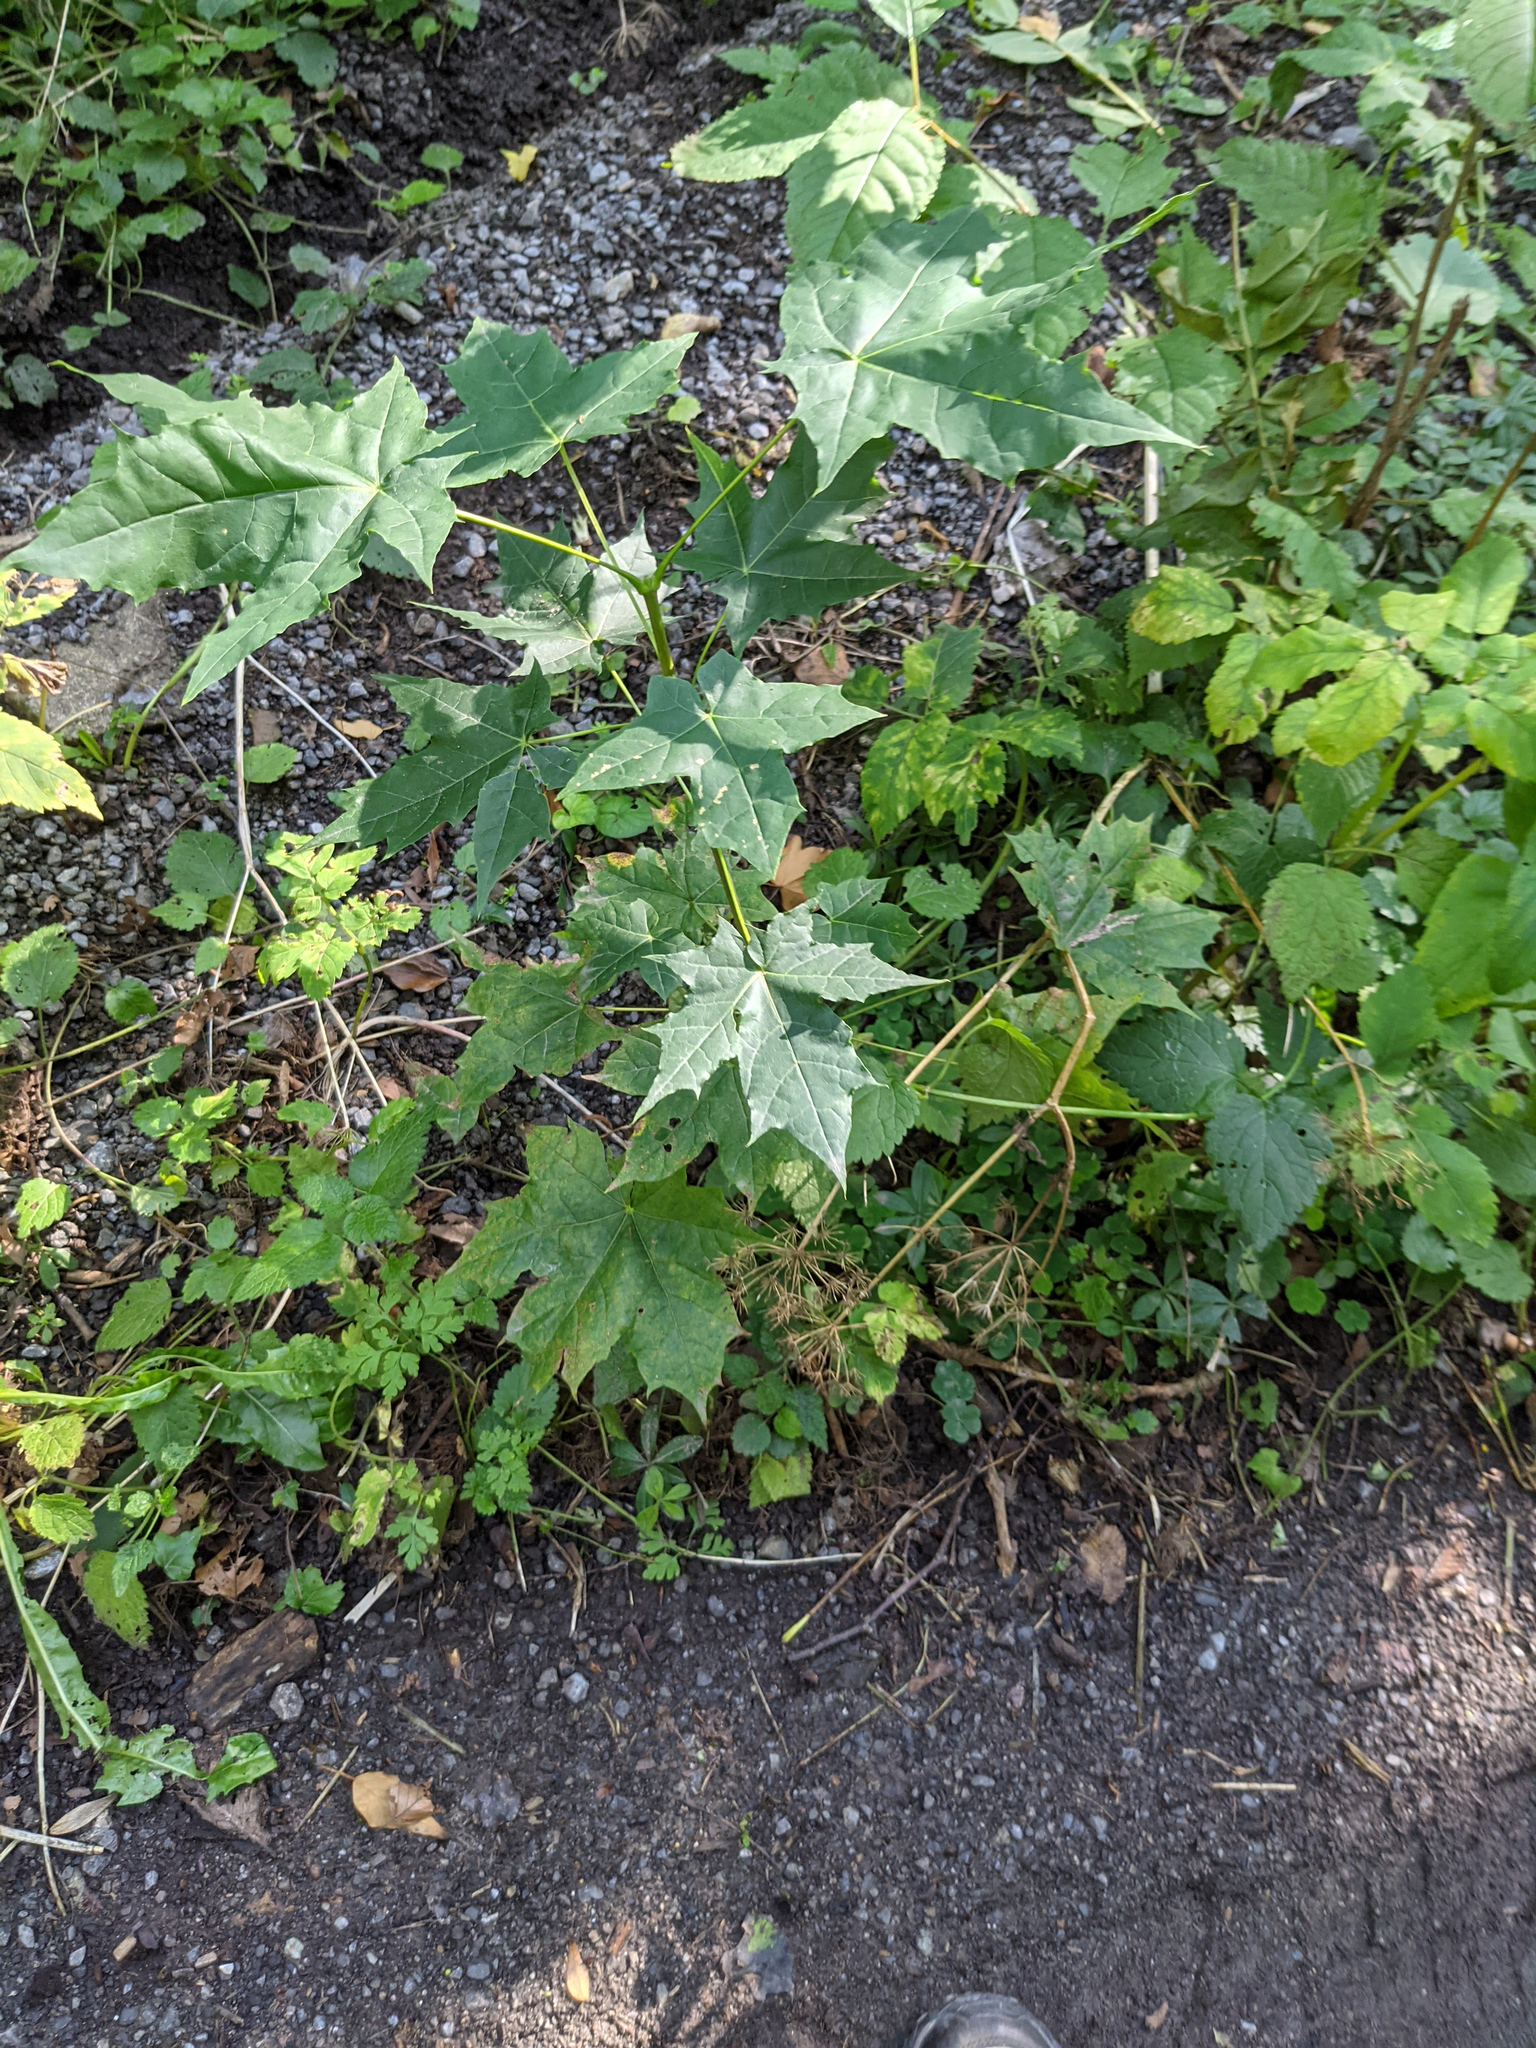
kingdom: Plantae
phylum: Tracheophyta
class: Magnoliopsida
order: Sapindales
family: Sapindaceae
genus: Acer
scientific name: Acer platanoides
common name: Norway maple
